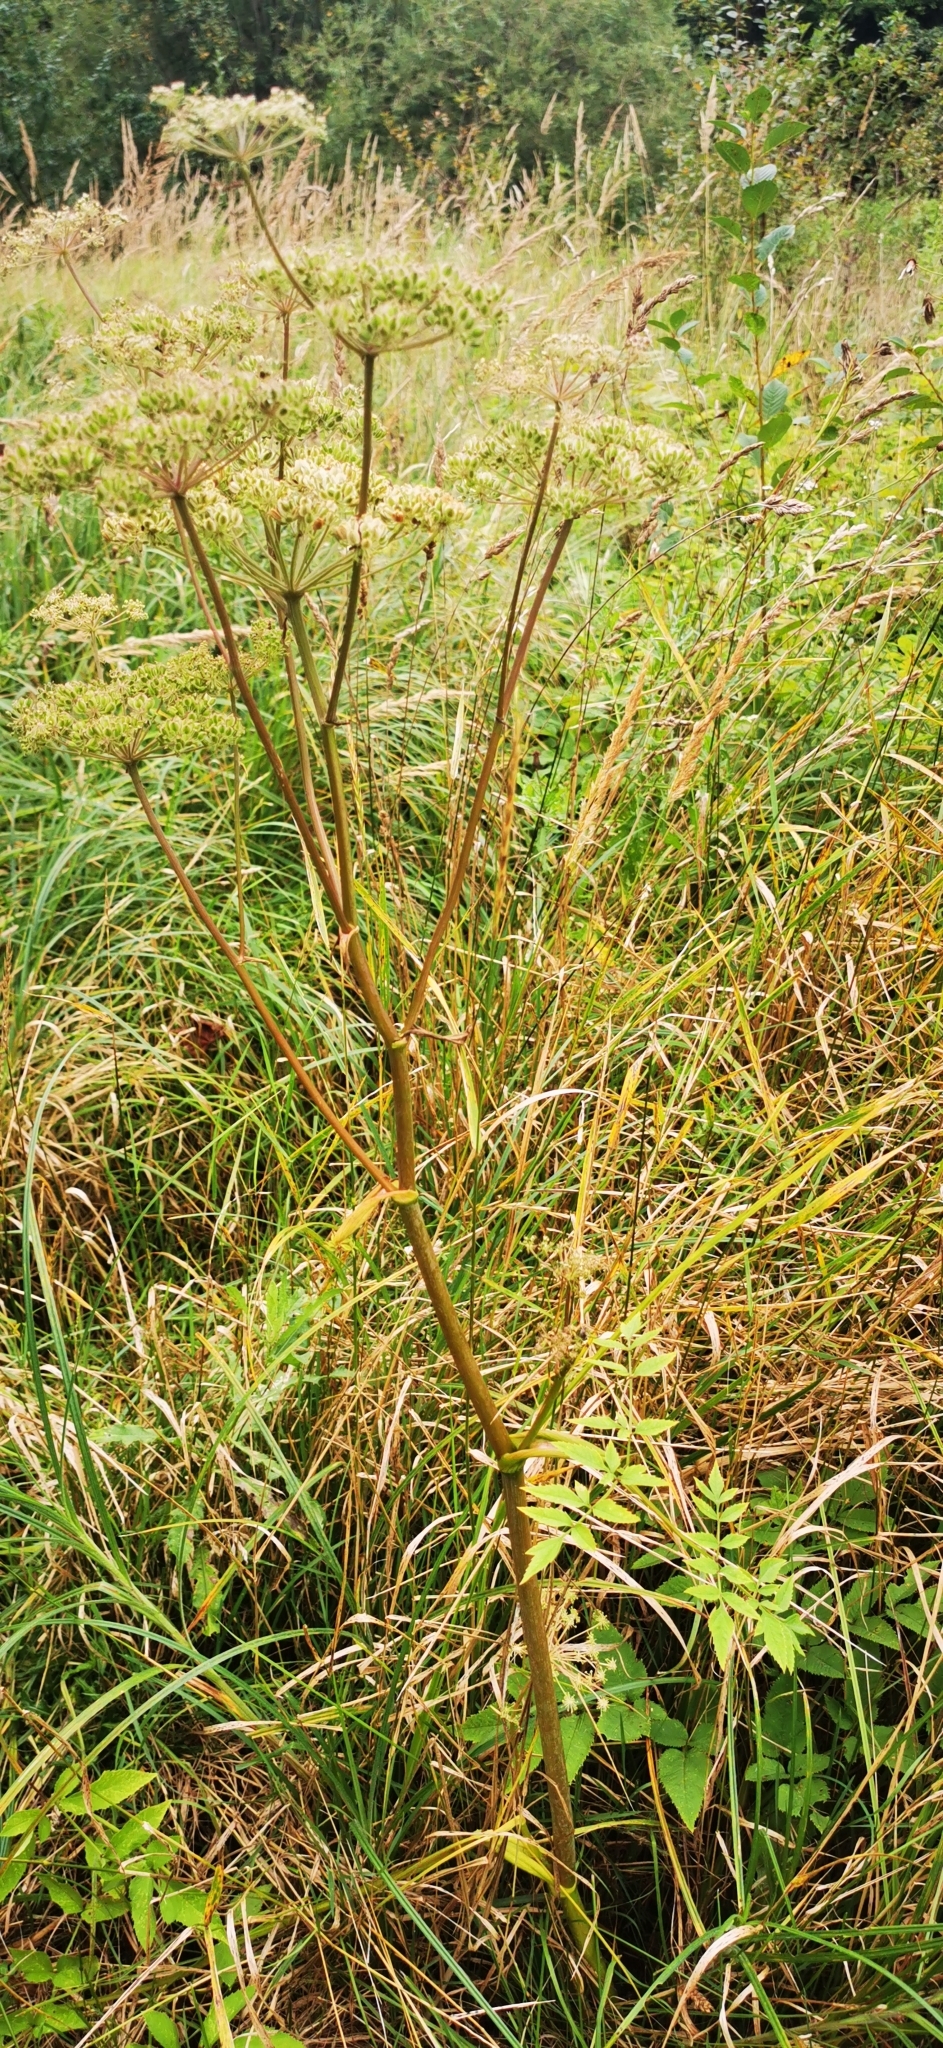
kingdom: Plantae
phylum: Tracheophyta
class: Magnoliopsida
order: Apiales
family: Apiaceae
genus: Angelica
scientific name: Angelica sylvestris
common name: Wild angelica
